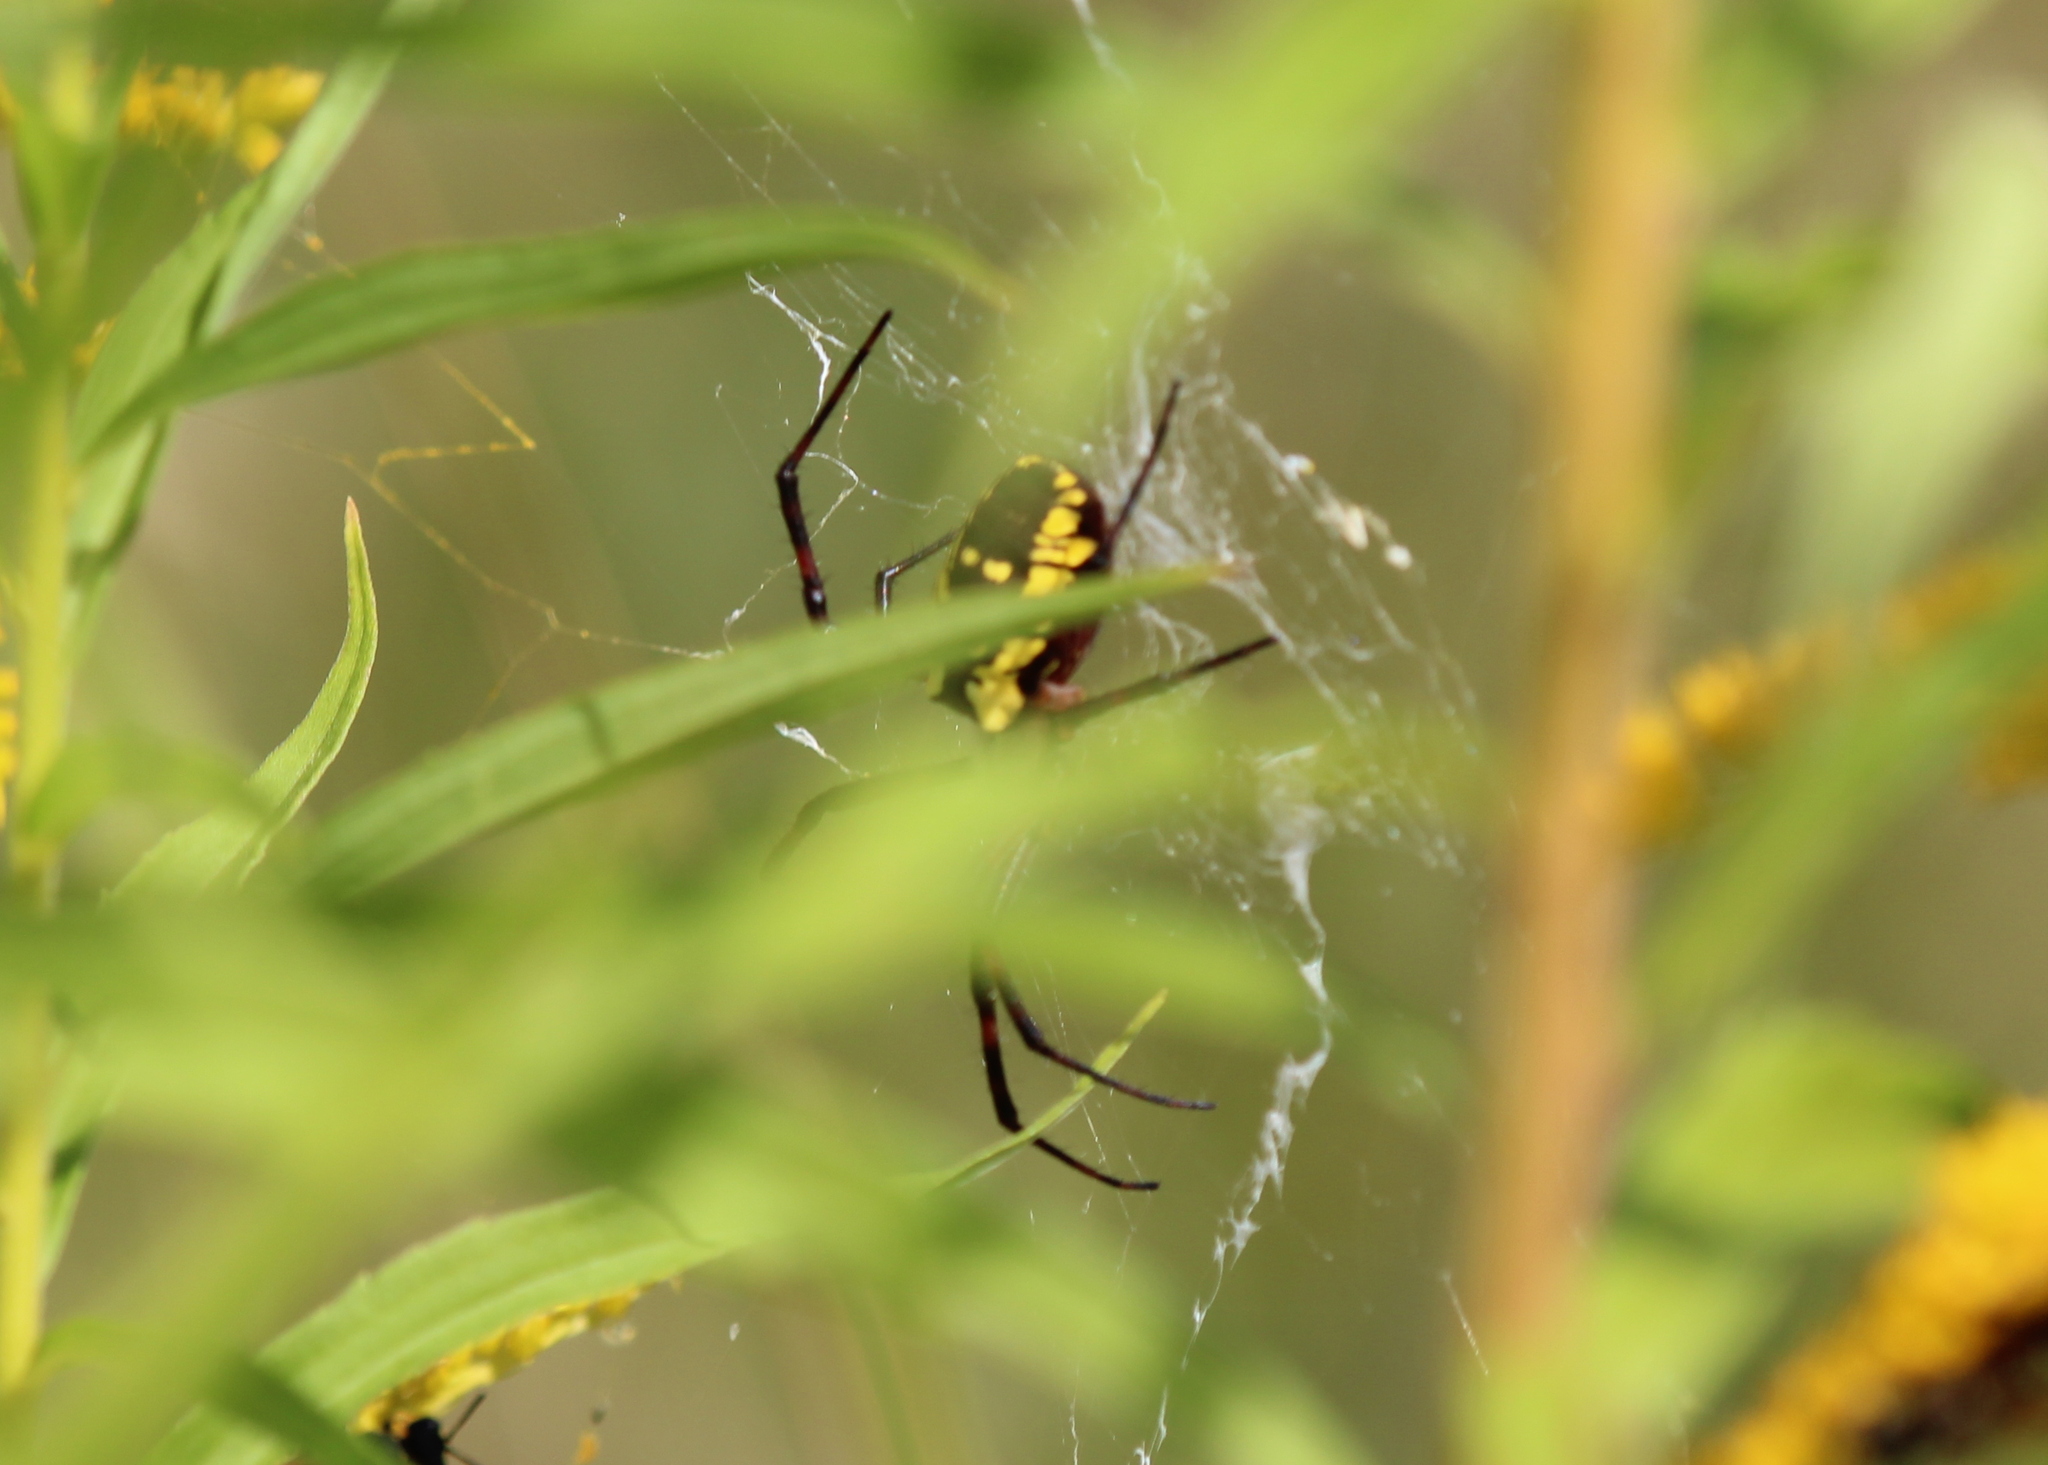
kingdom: Animalia
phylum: Arthropoda
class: Arachnida
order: Araneae
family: Araneidae
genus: Argiope
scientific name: Argiope aurantia
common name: Orb weavers
